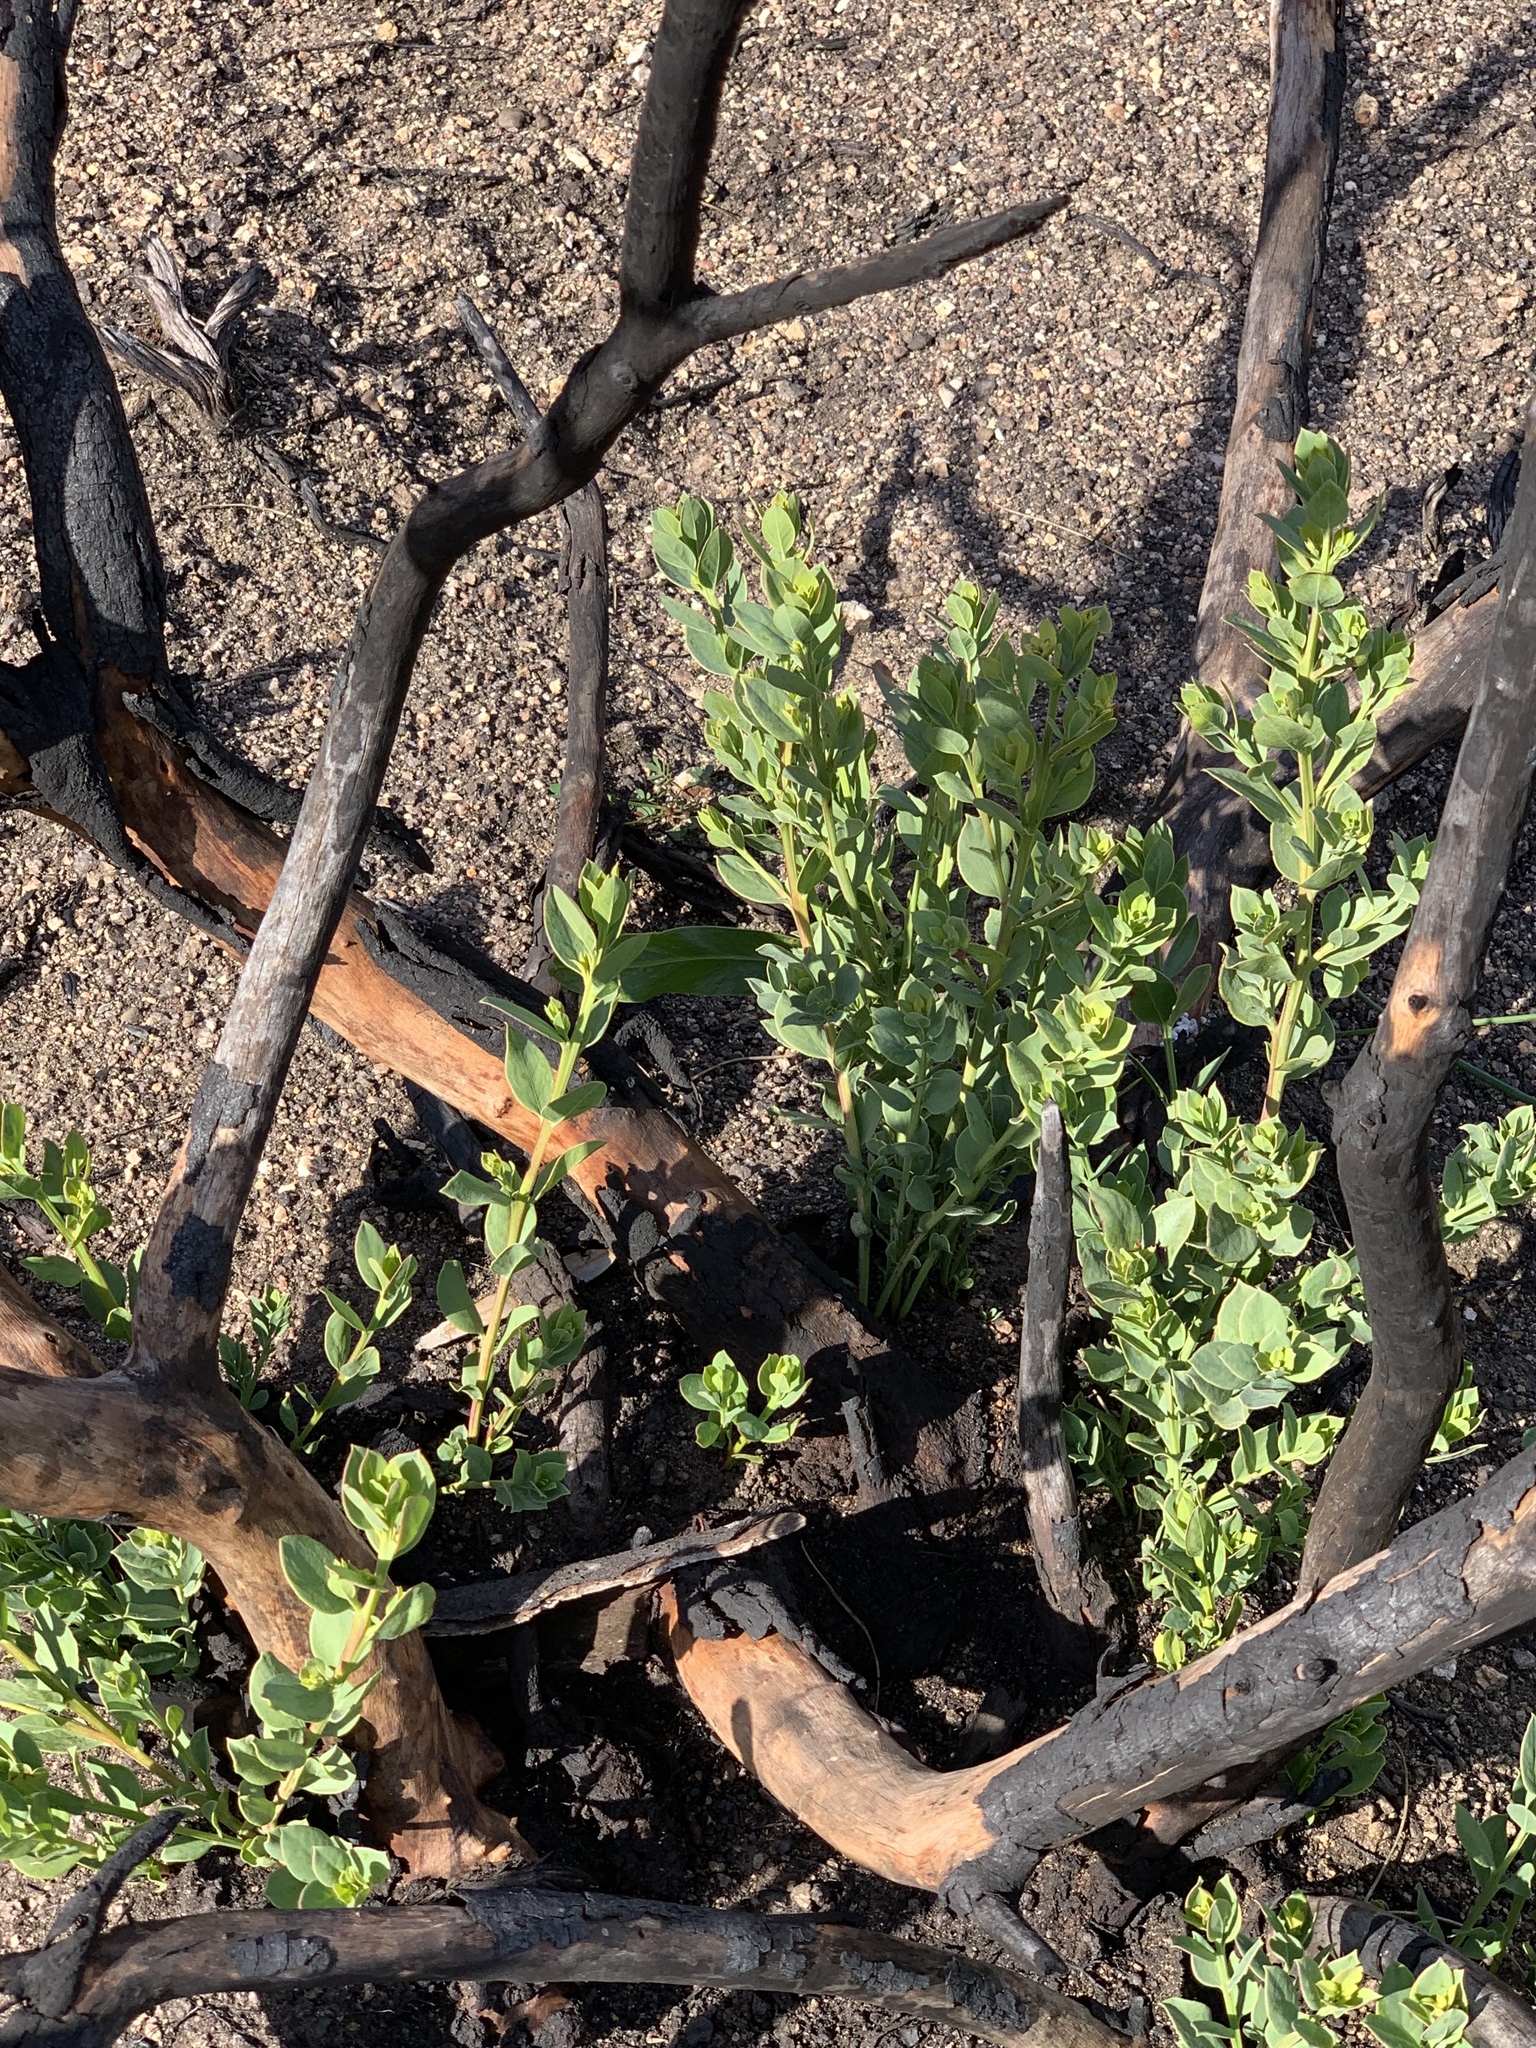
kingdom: Plantae
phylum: Tracheophyta
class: Magnoliopsida
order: Santalales
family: Santalaceae
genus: Osyris
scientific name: Osyris compressa
